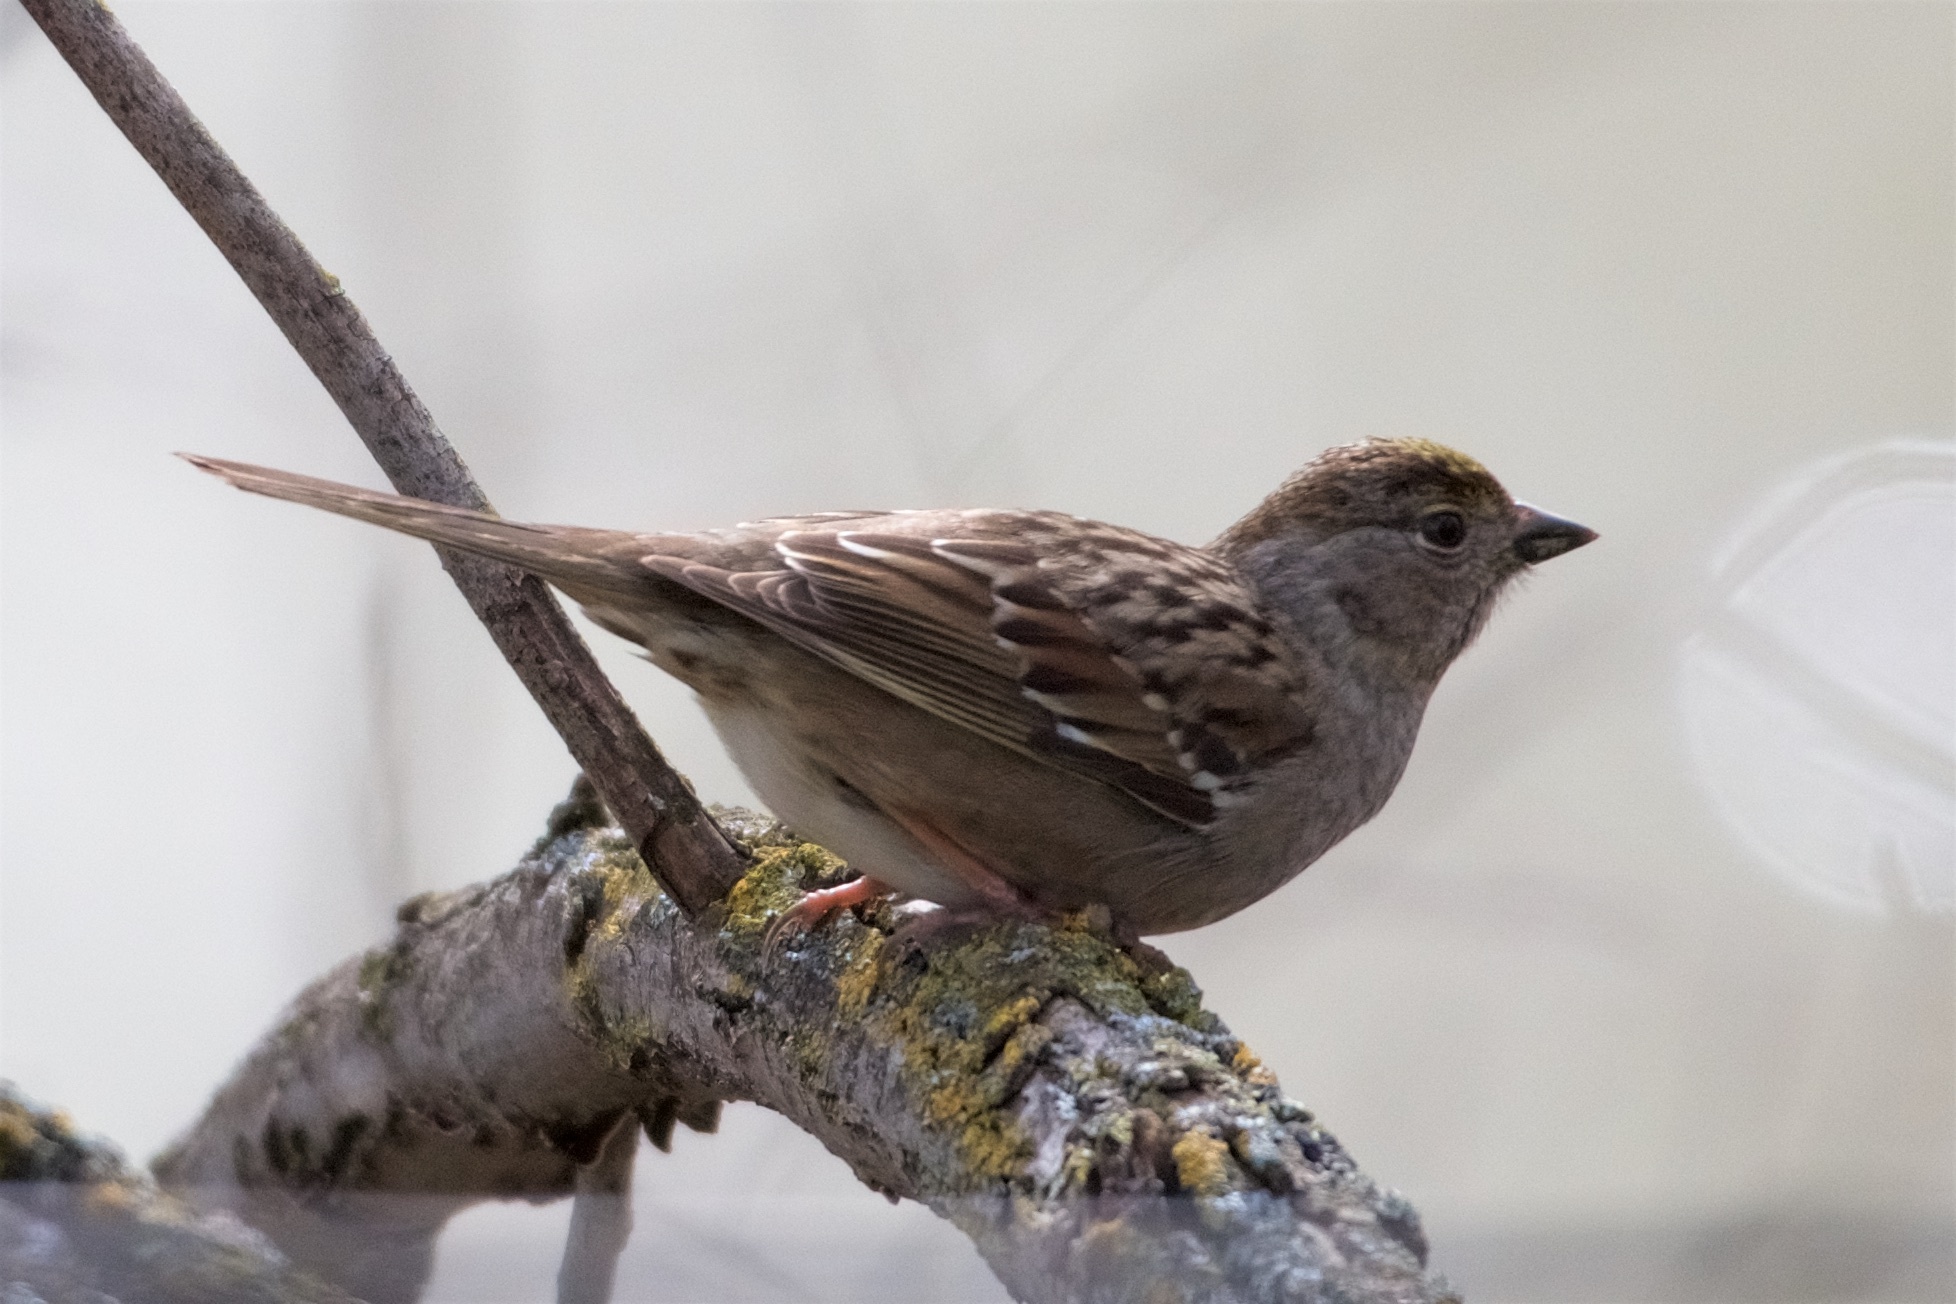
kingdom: Animalia
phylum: Chordata
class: Aves
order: Passeriformes
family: Passerellidae
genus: Zonotrichia
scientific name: Zonotrichia atricapilla
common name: Golden-crowned sparrow
